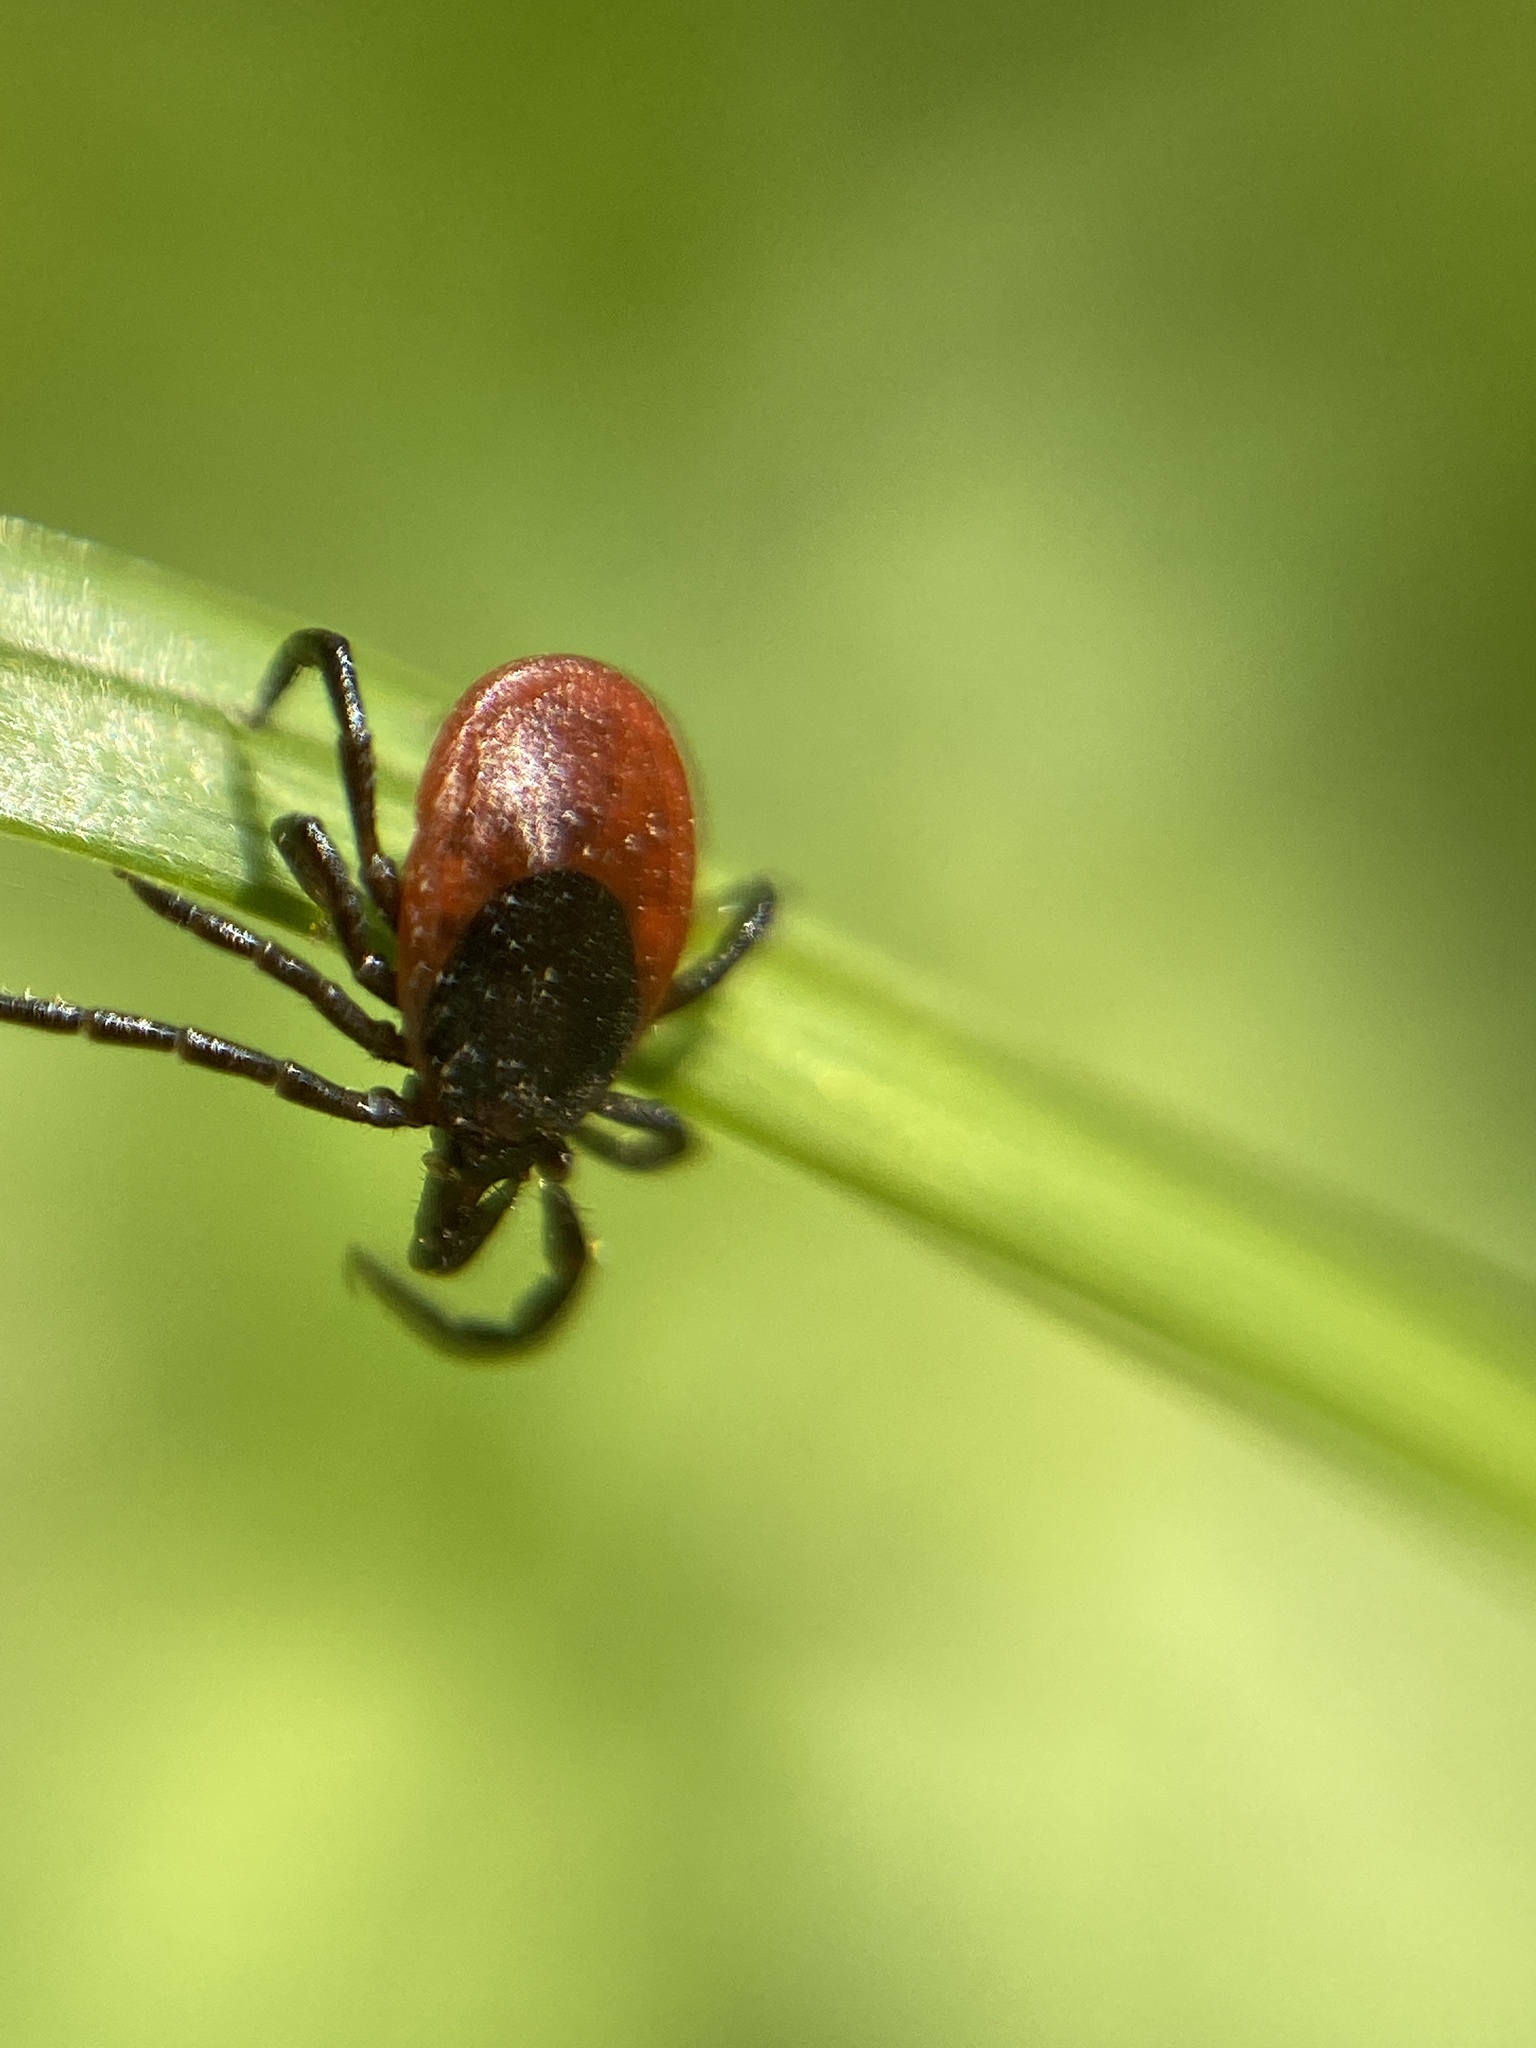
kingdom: Animalia
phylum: Arthropoda
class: Arachnida
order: Ixodida
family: Ixodidae
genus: Ixodes
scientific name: Ixodes ricinus
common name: Castor bean tick
